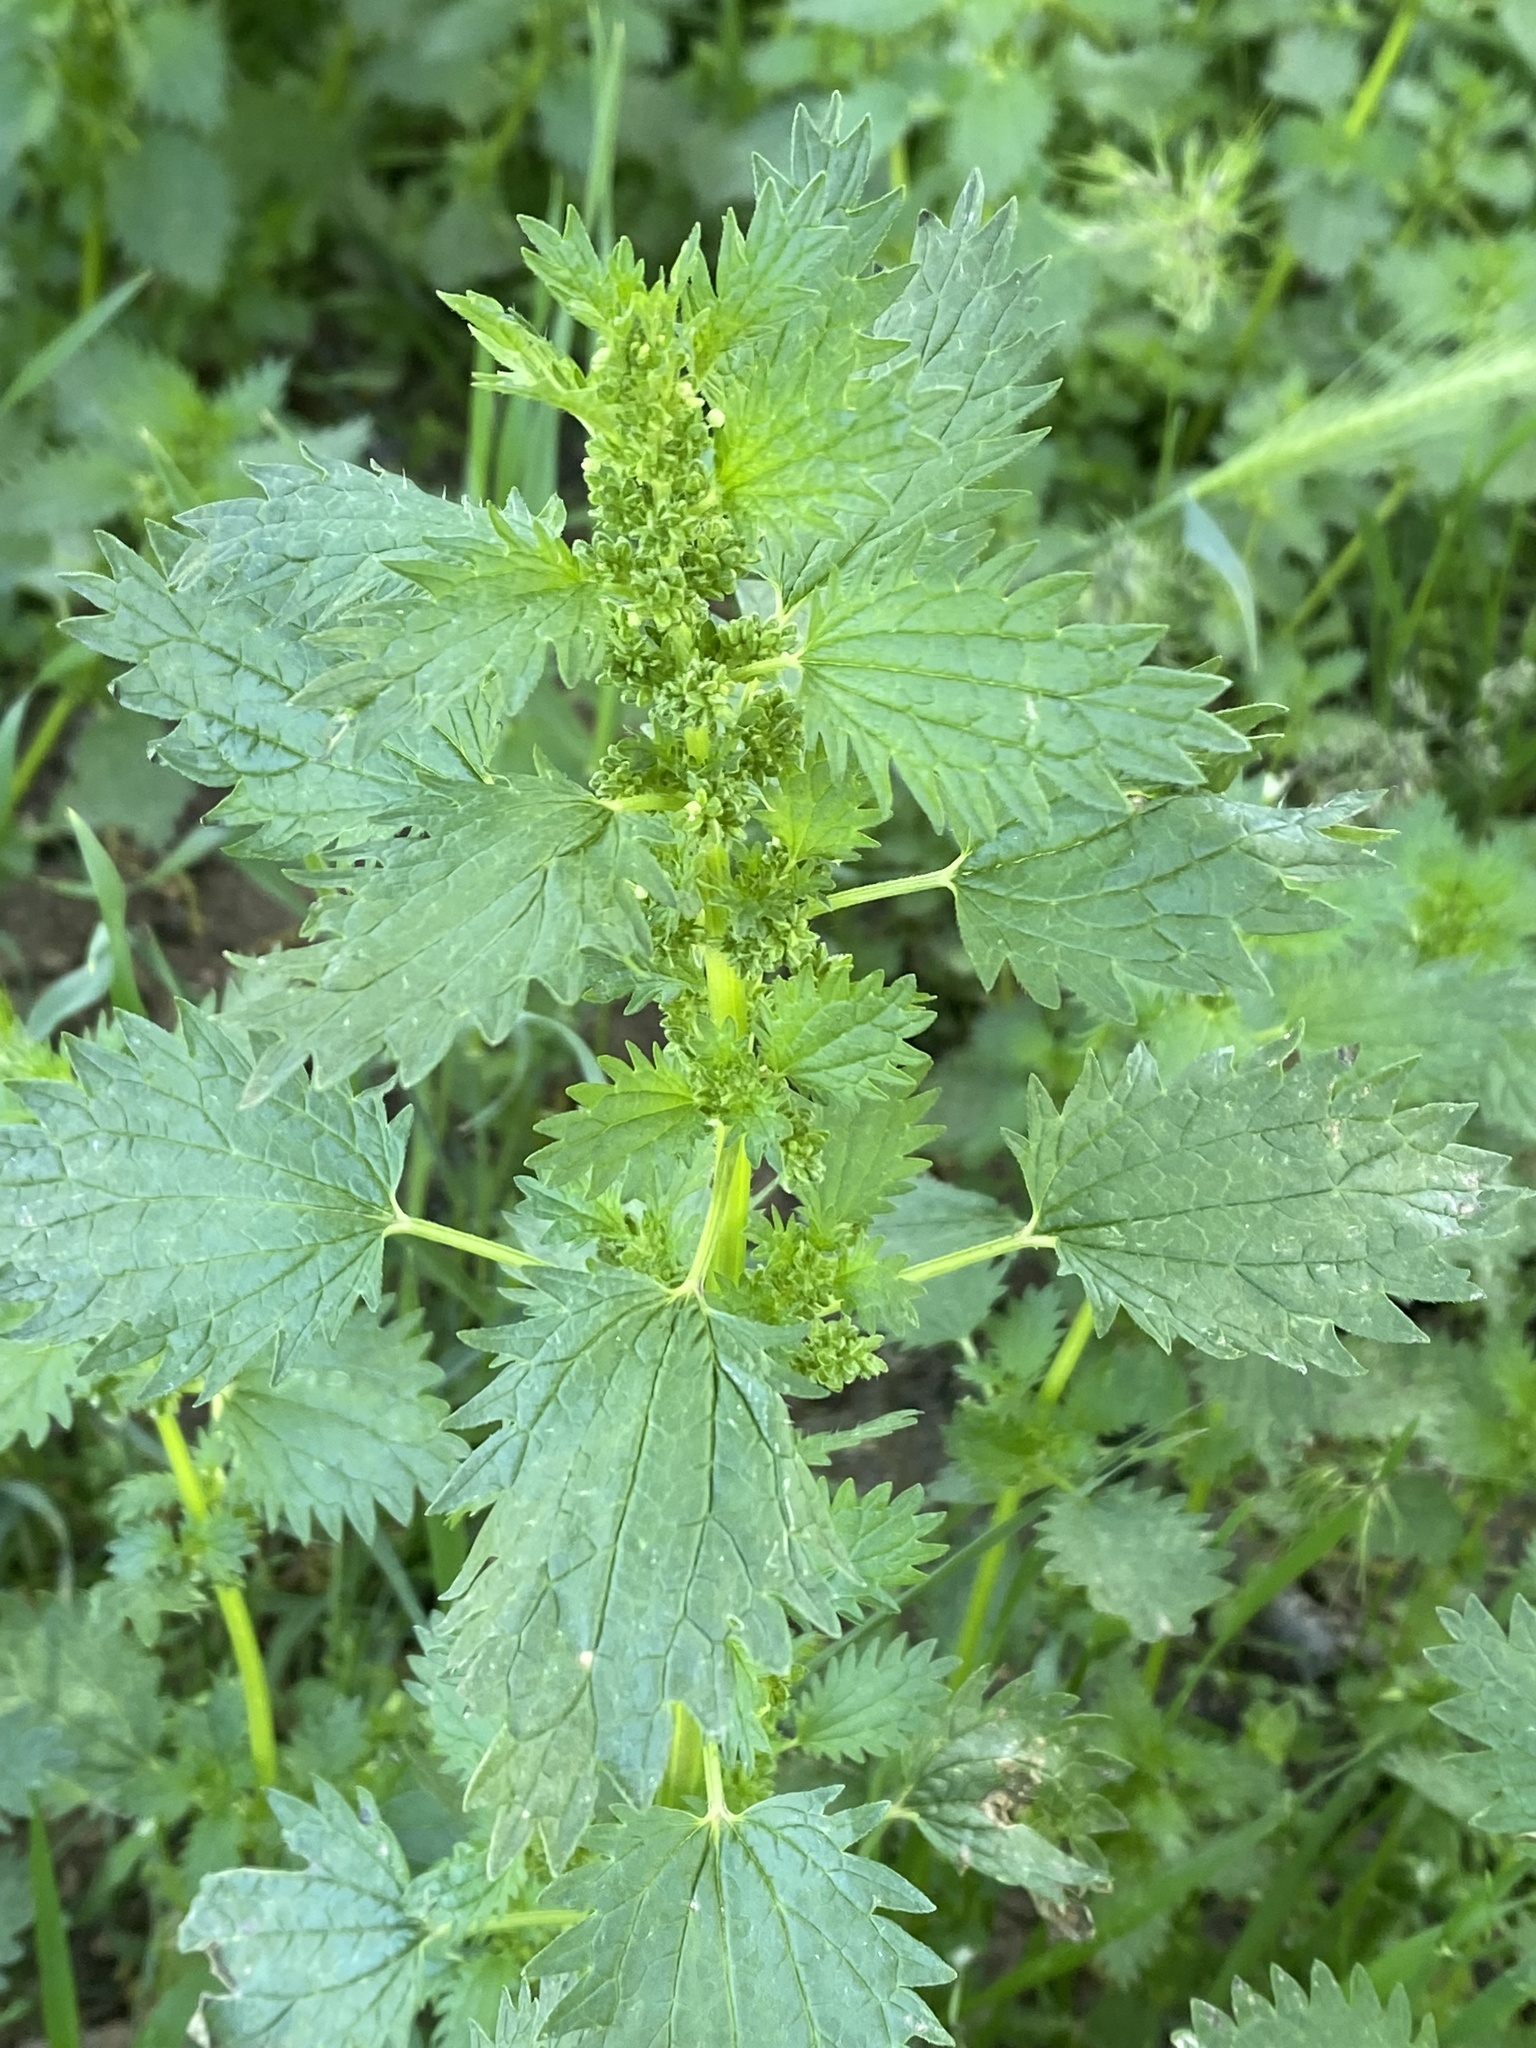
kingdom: Plantae
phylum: Tracheophyta
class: Magnoliopsida
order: Rosales
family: Urticaceae
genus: Urtica
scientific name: Urtica urens
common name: Dwarf nettle
